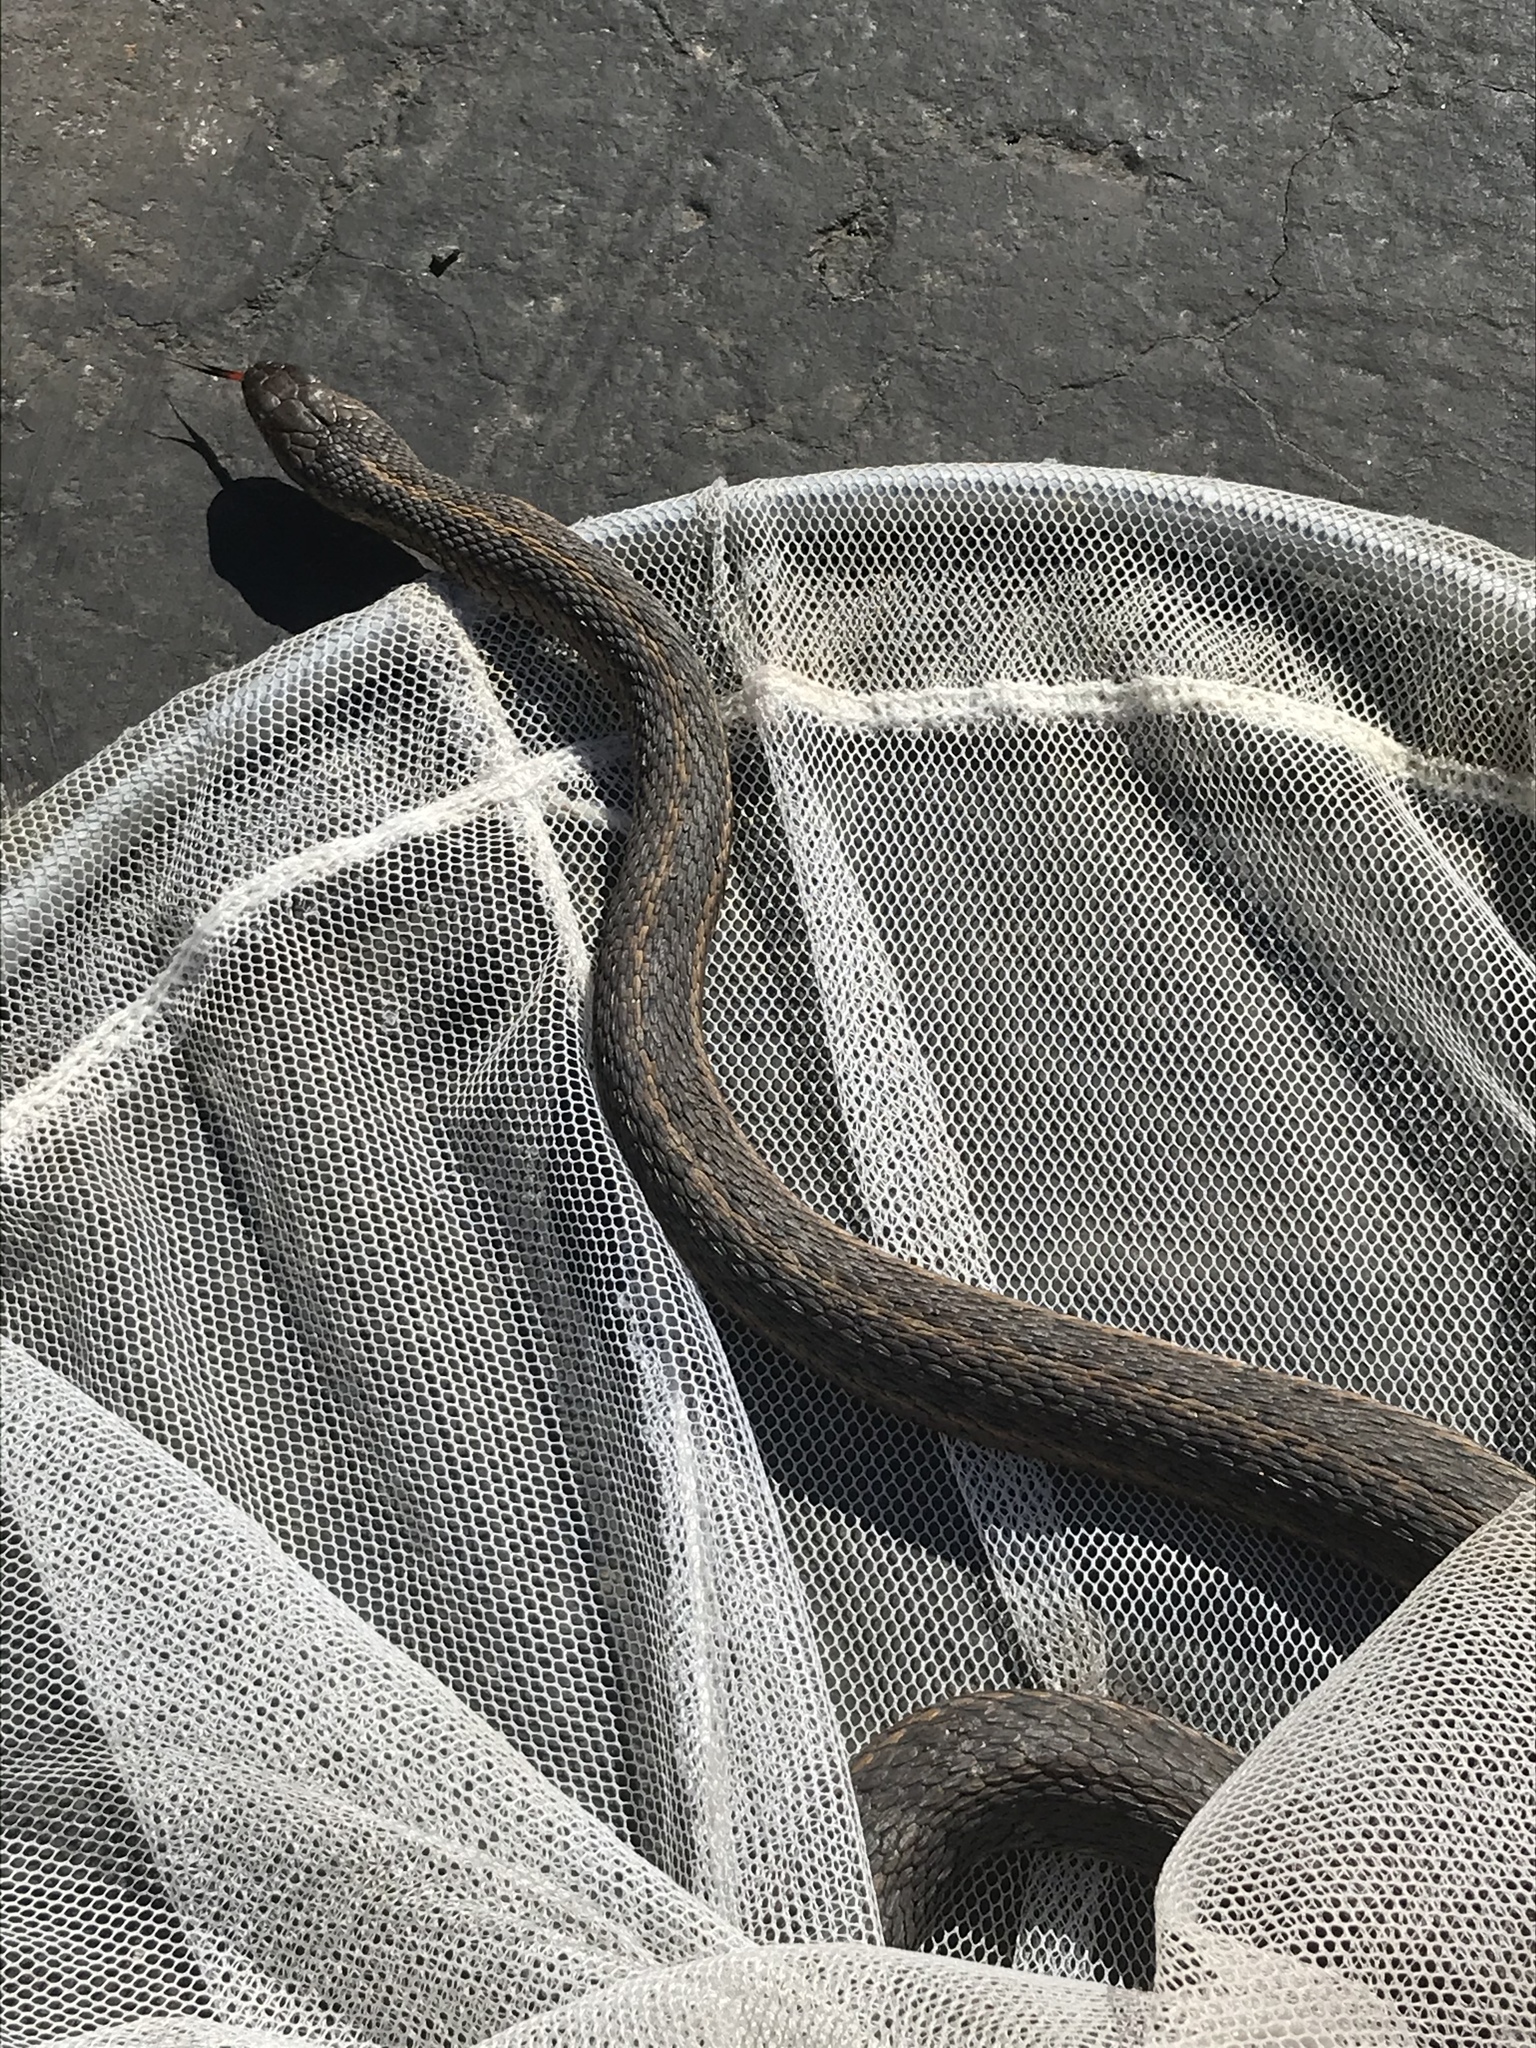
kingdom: Animalia
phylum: Chordata
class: Squamata
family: Colubridae
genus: Thamnophis
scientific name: Thamnophis elegans
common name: Western terrestrial garter snake
